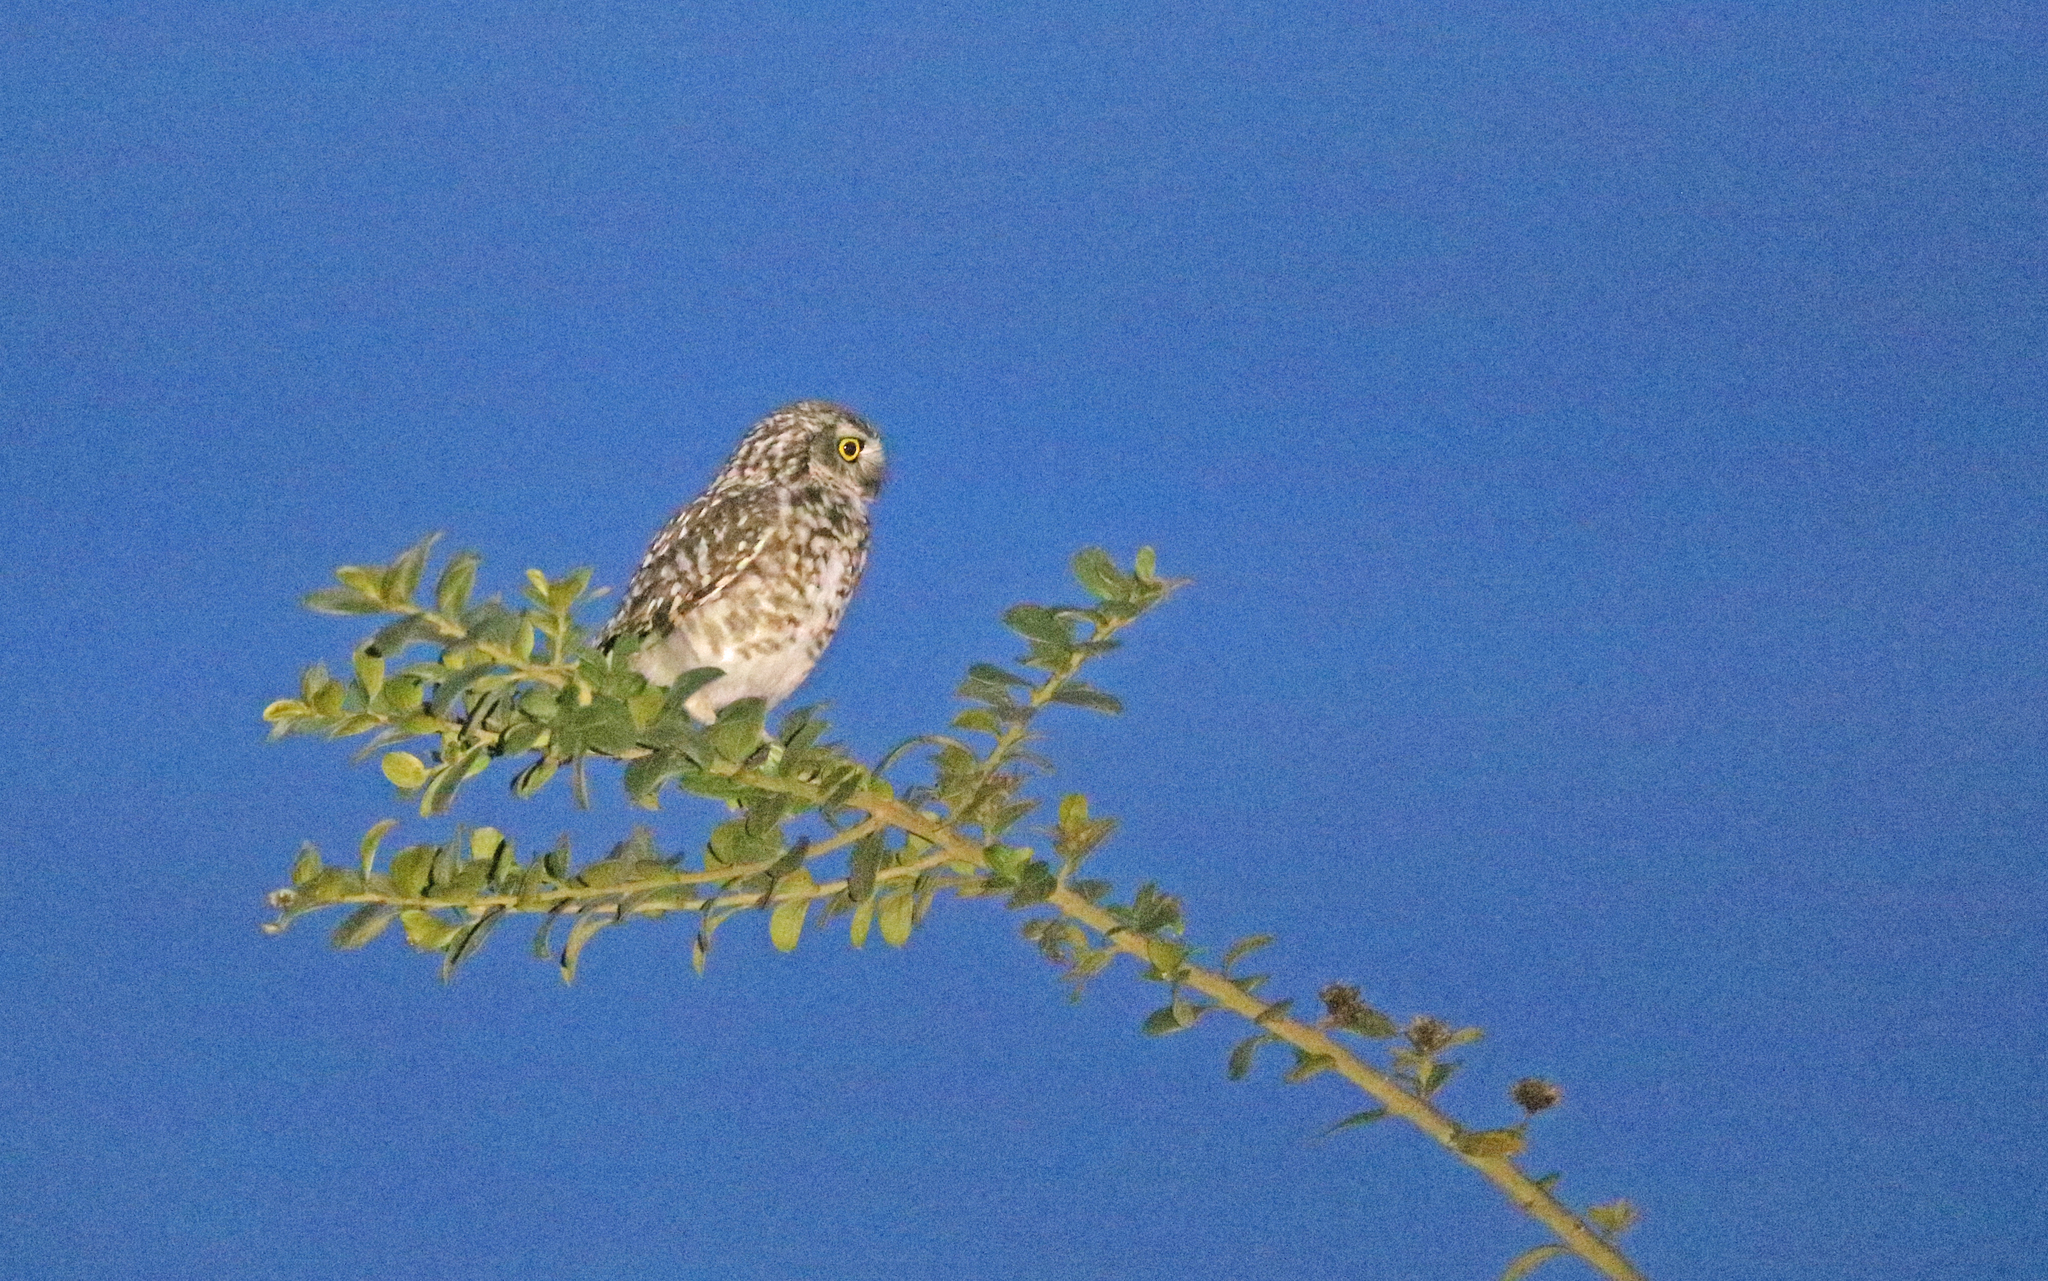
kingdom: Animalia
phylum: Chordata
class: Aves
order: Strigiformes
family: Strigidae
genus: Athene
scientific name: Athene cunicularia
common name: Burrowing owl
